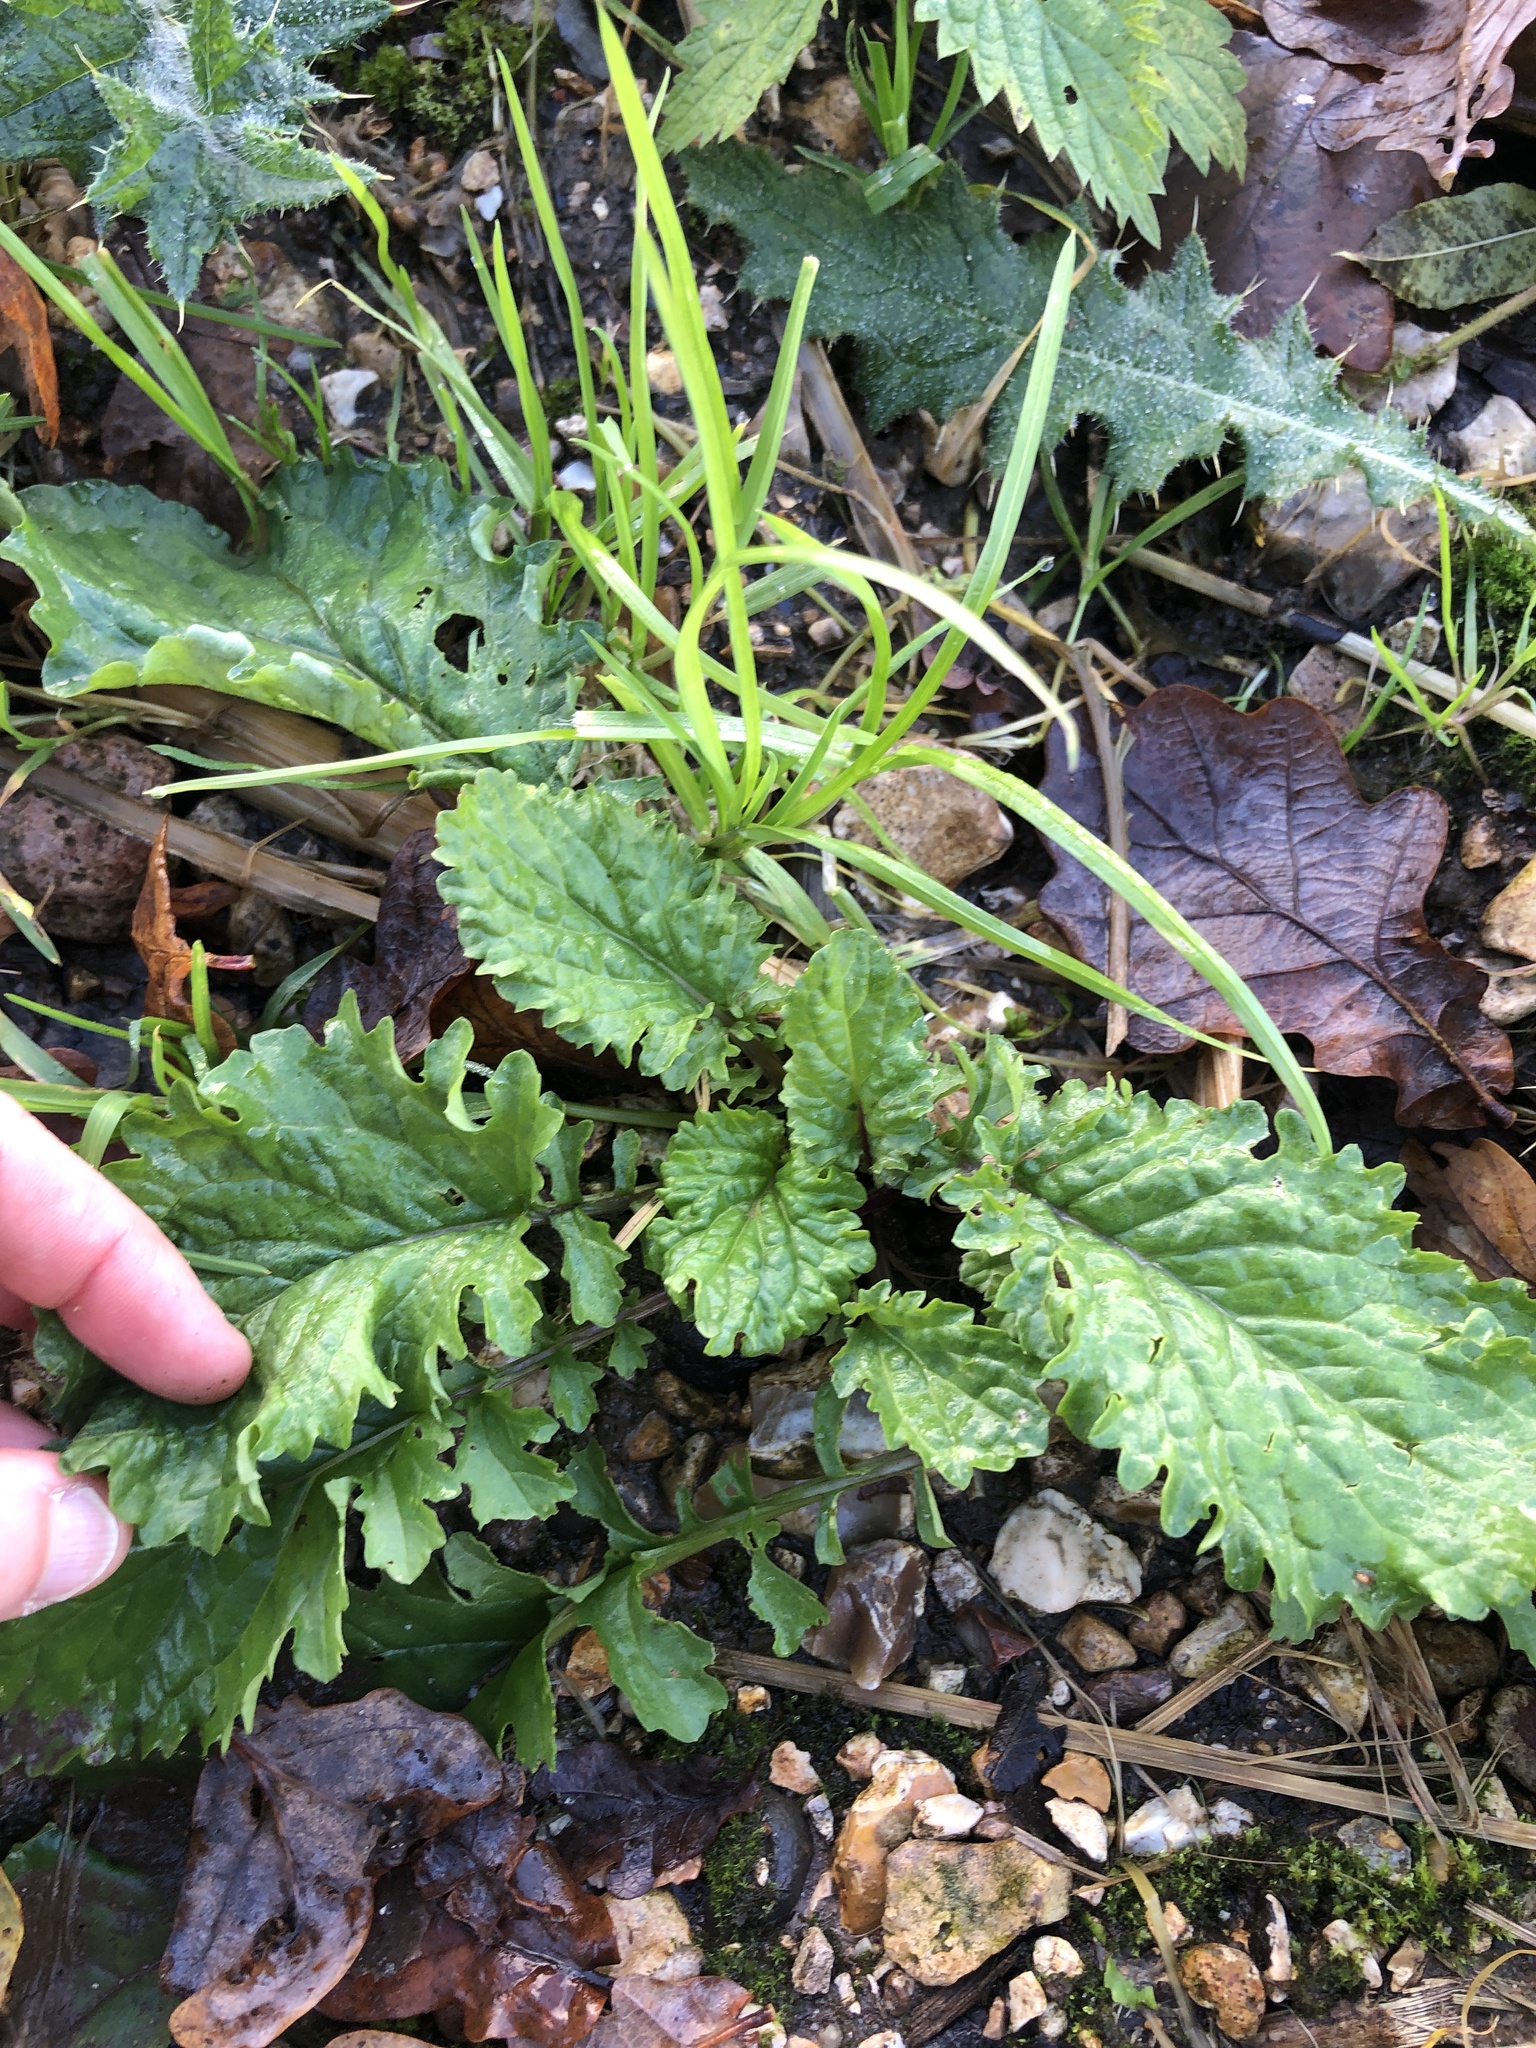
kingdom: Plantae
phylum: Tracheophyta
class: Magnoliopsida
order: Asterales
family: Asteraceae
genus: Jacobaea
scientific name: Jacobaea vulgaris
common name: Stinking willie
